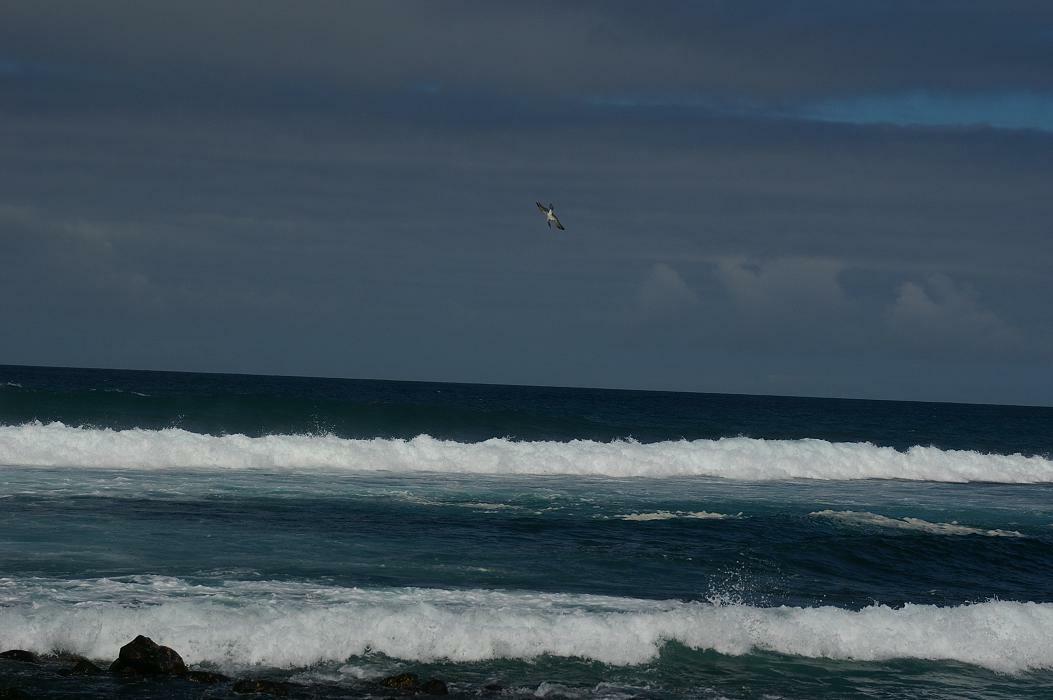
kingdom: Animalia
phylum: Chordata
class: Aves
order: Suliformes
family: Sulidae
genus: Sula
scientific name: Sula nebouxii
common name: Blue-footed booby
